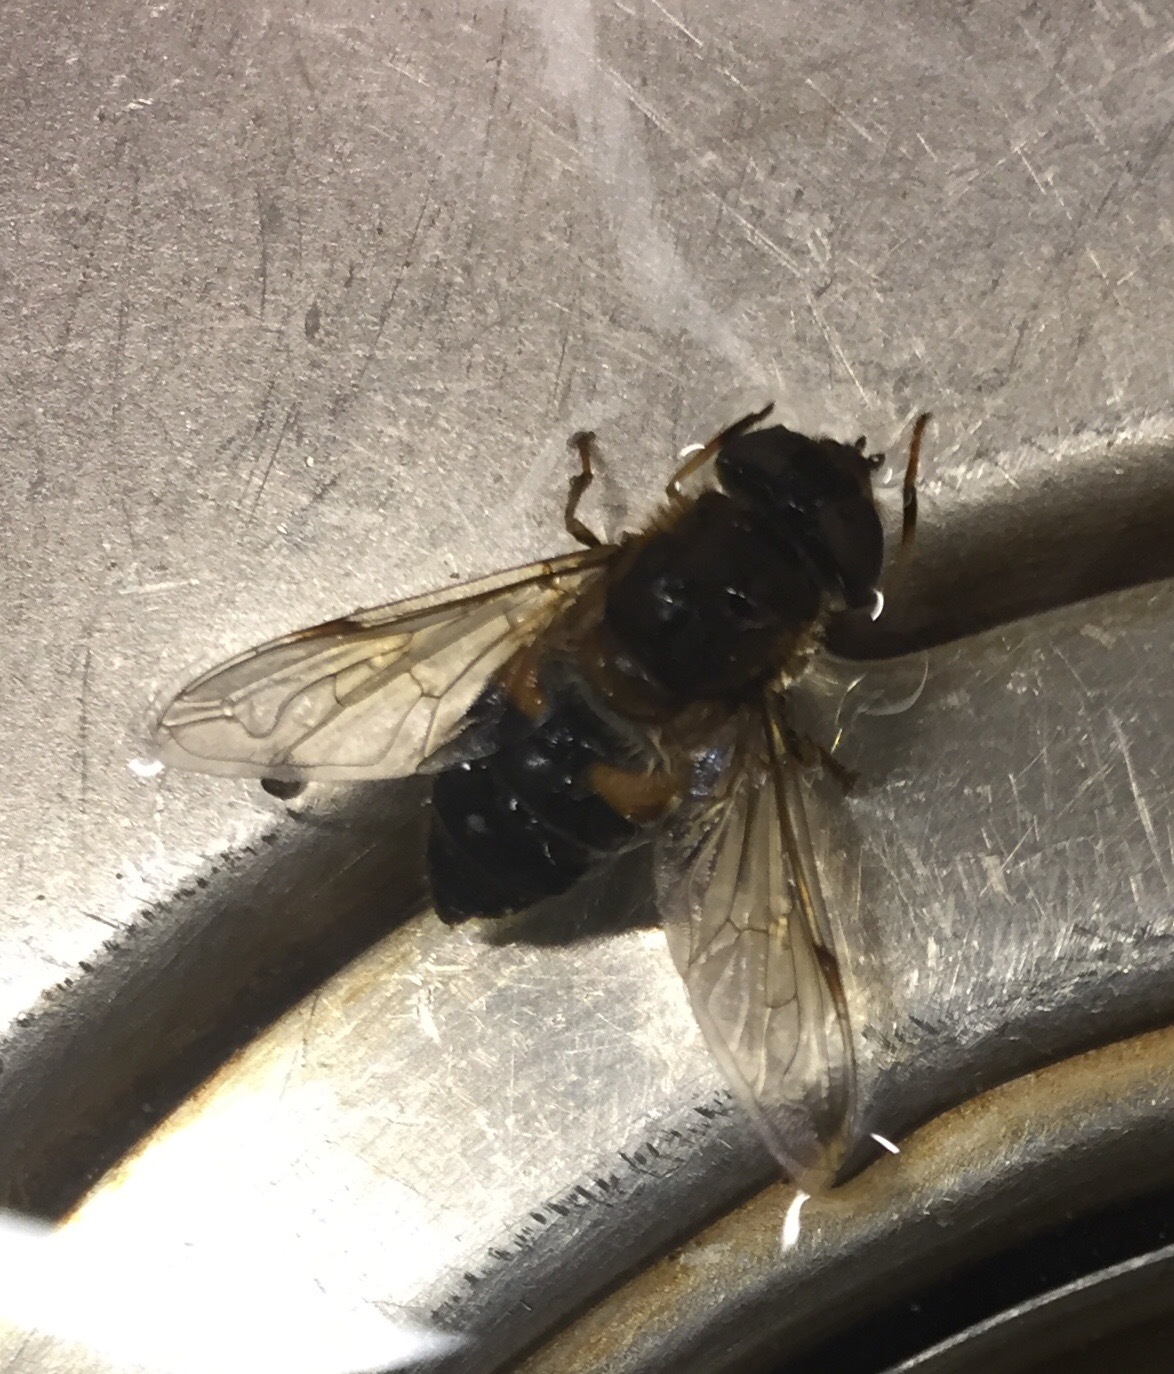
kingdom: Animalia
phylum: Arthropoda
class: Insecta
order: Diptera
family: Syrphidae
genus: Eristalis
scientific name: Eristalis pertinax
